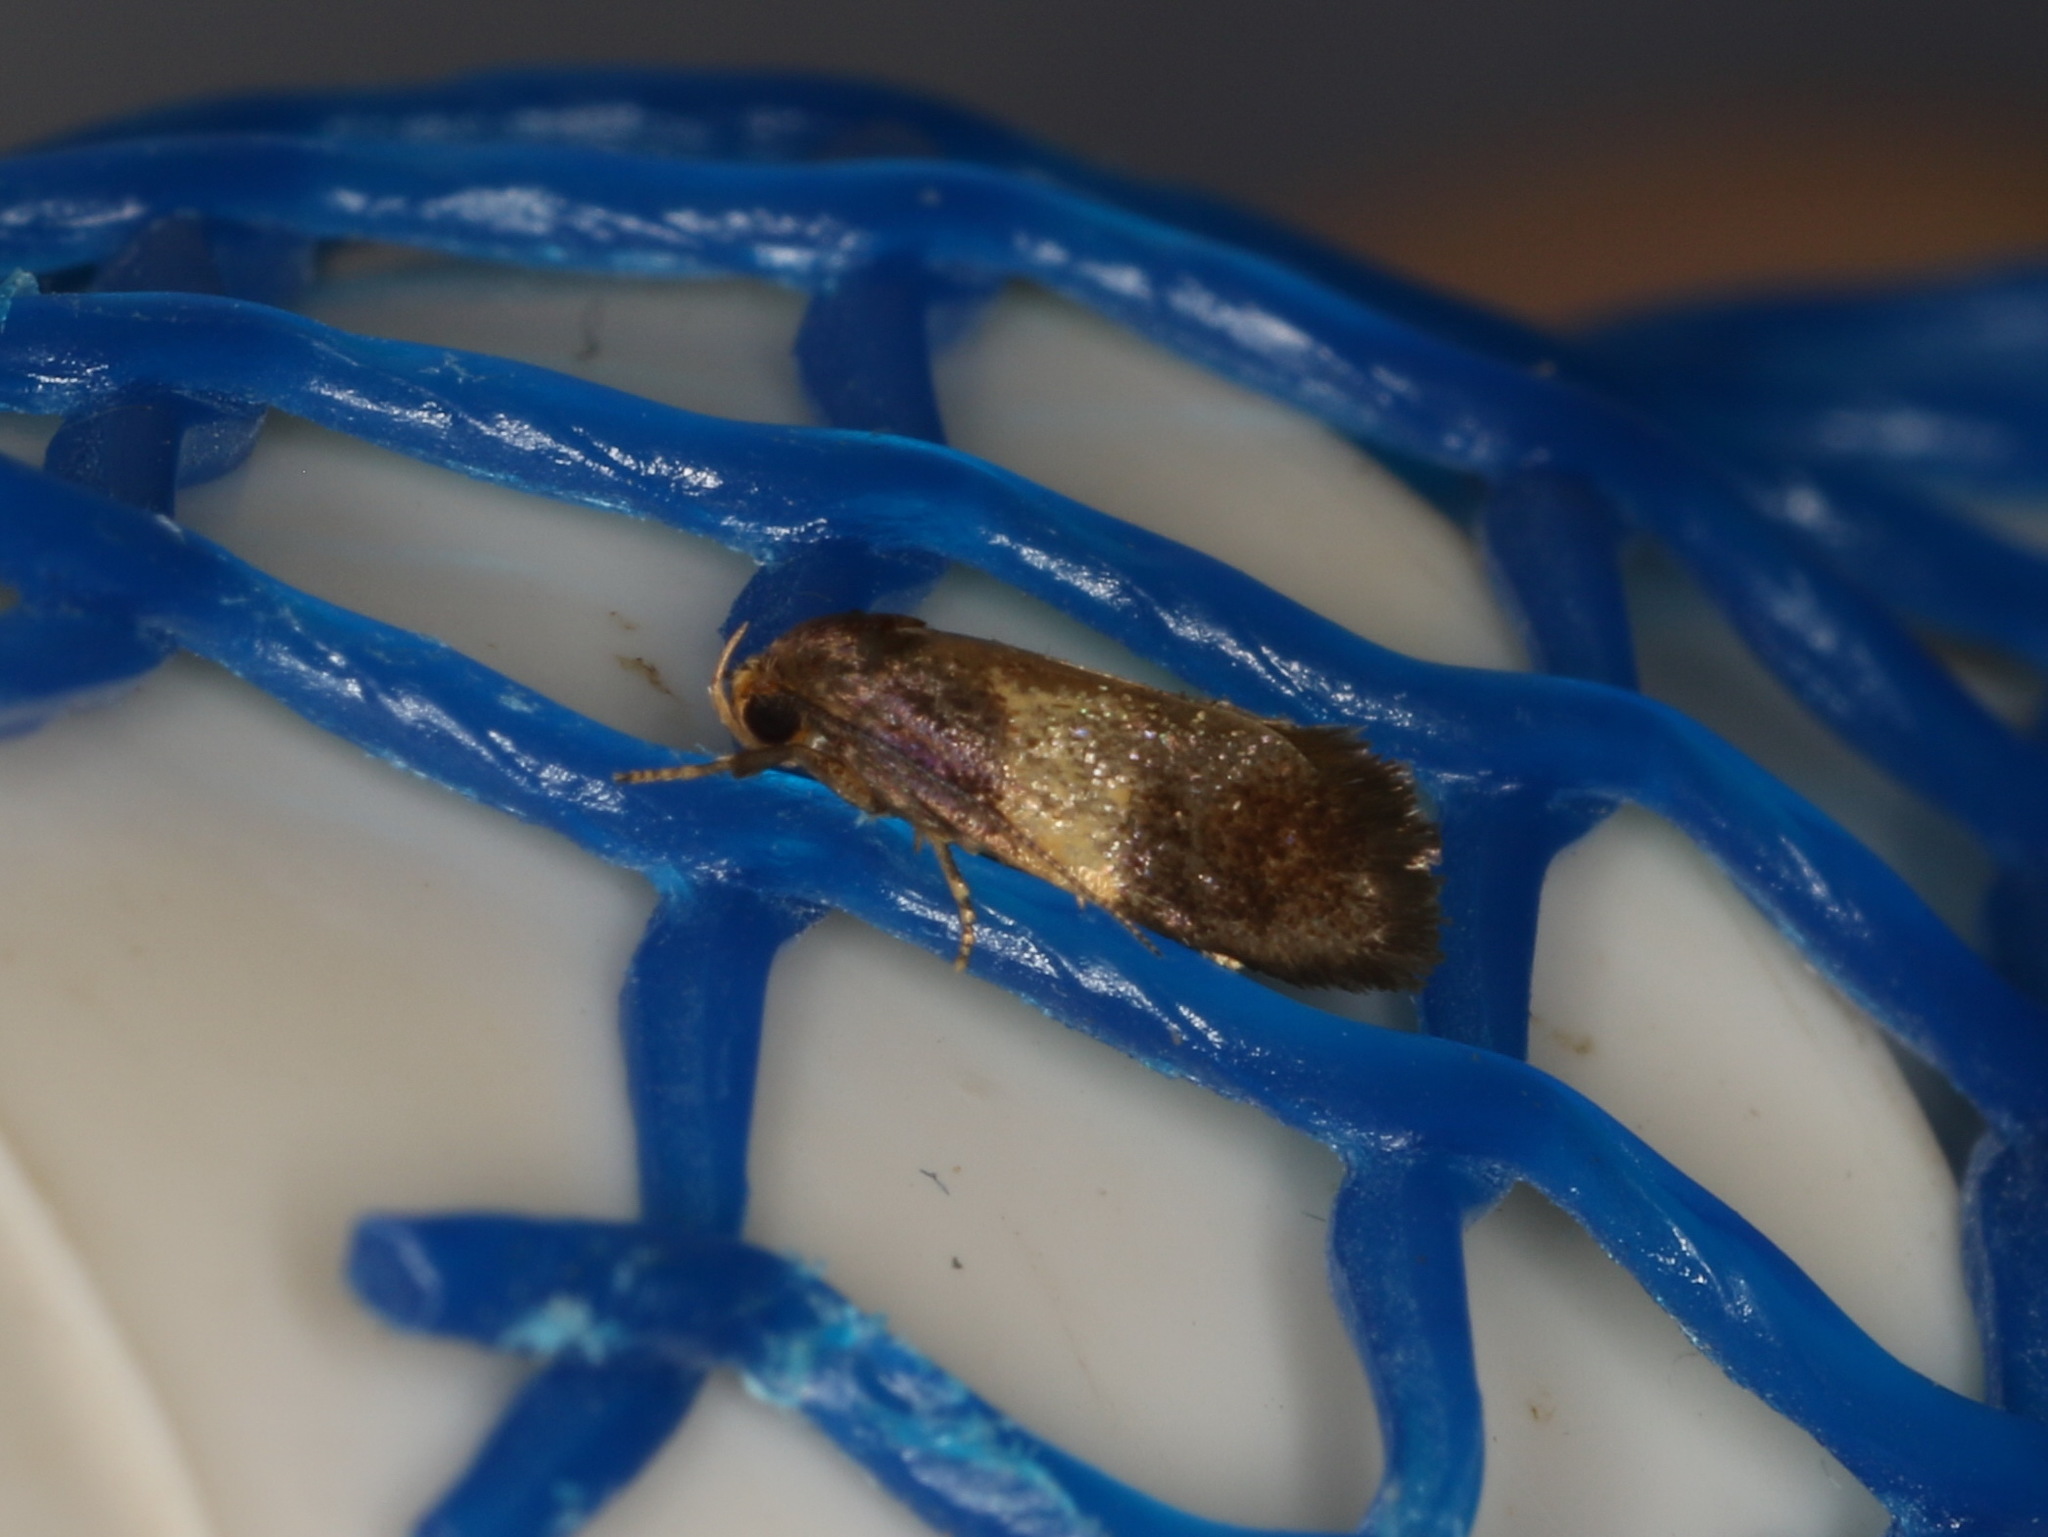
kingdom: Animalia
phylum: Arthropoda
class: Insecta
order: Lepidoptera
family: Oecophoridae
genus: Olbonoma
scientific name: Olbonoma callopistis
